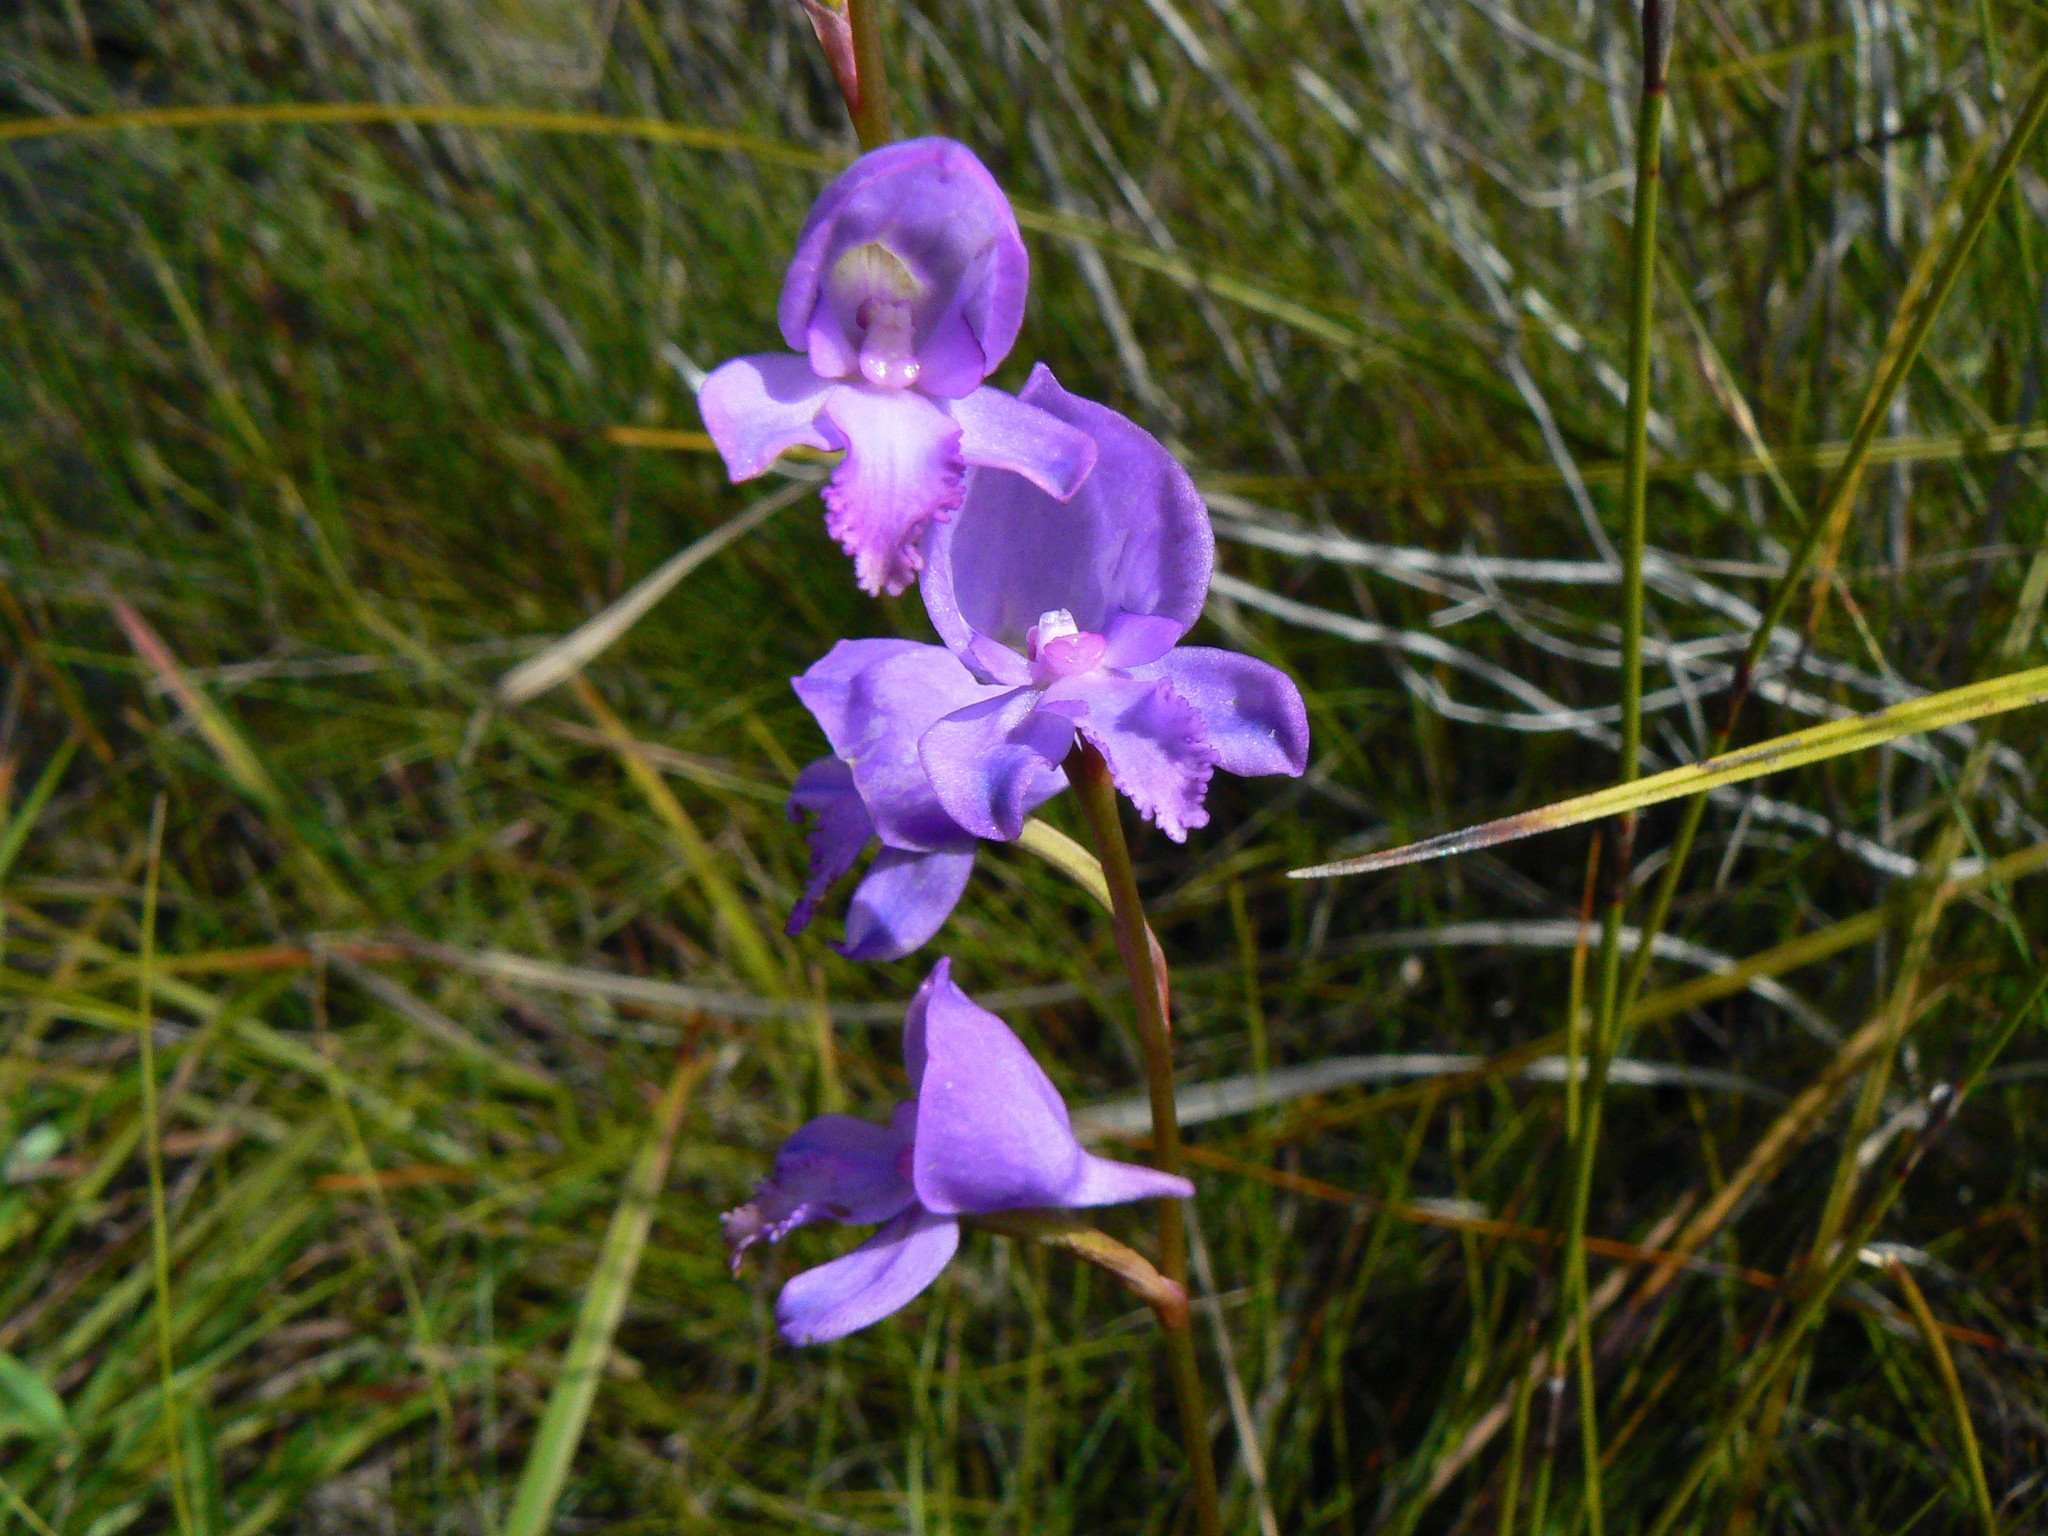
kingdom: Plantae
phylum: Tracheophyta
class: Liliopsida
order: Asparagales
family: Orchidaceae
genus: Disa
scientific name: Disa hians
